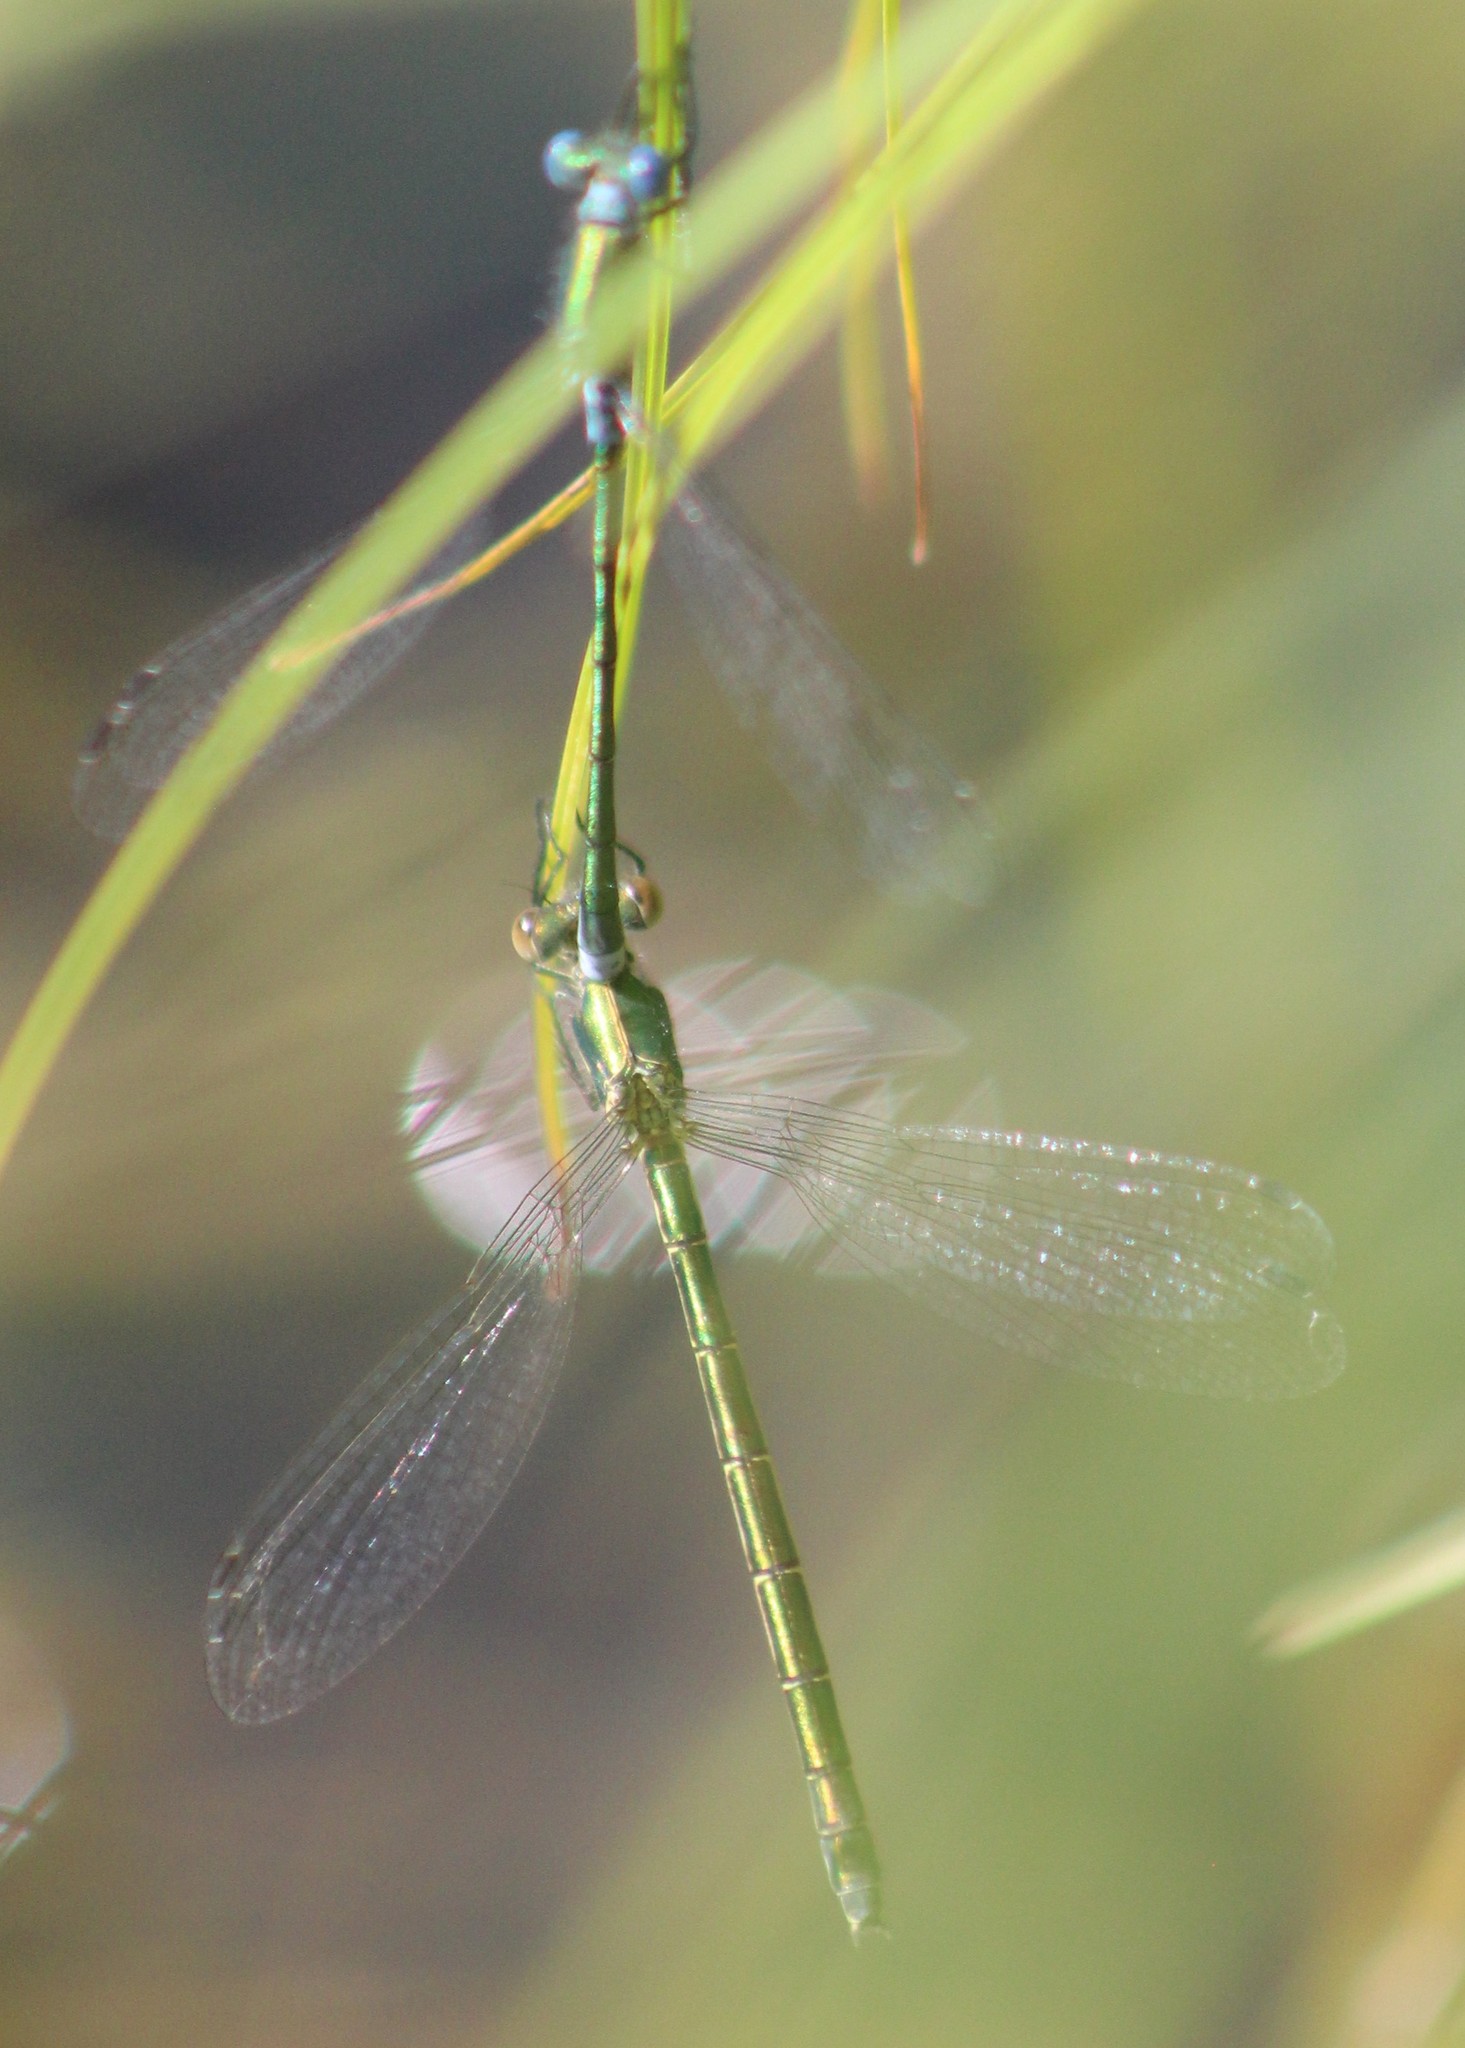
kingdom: Animalia
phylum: Arthropoda
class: Insecta
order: Odonata
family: Lestidae
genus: Lestes
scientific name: Lestes dryas
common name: Scarce emerald damselfly
